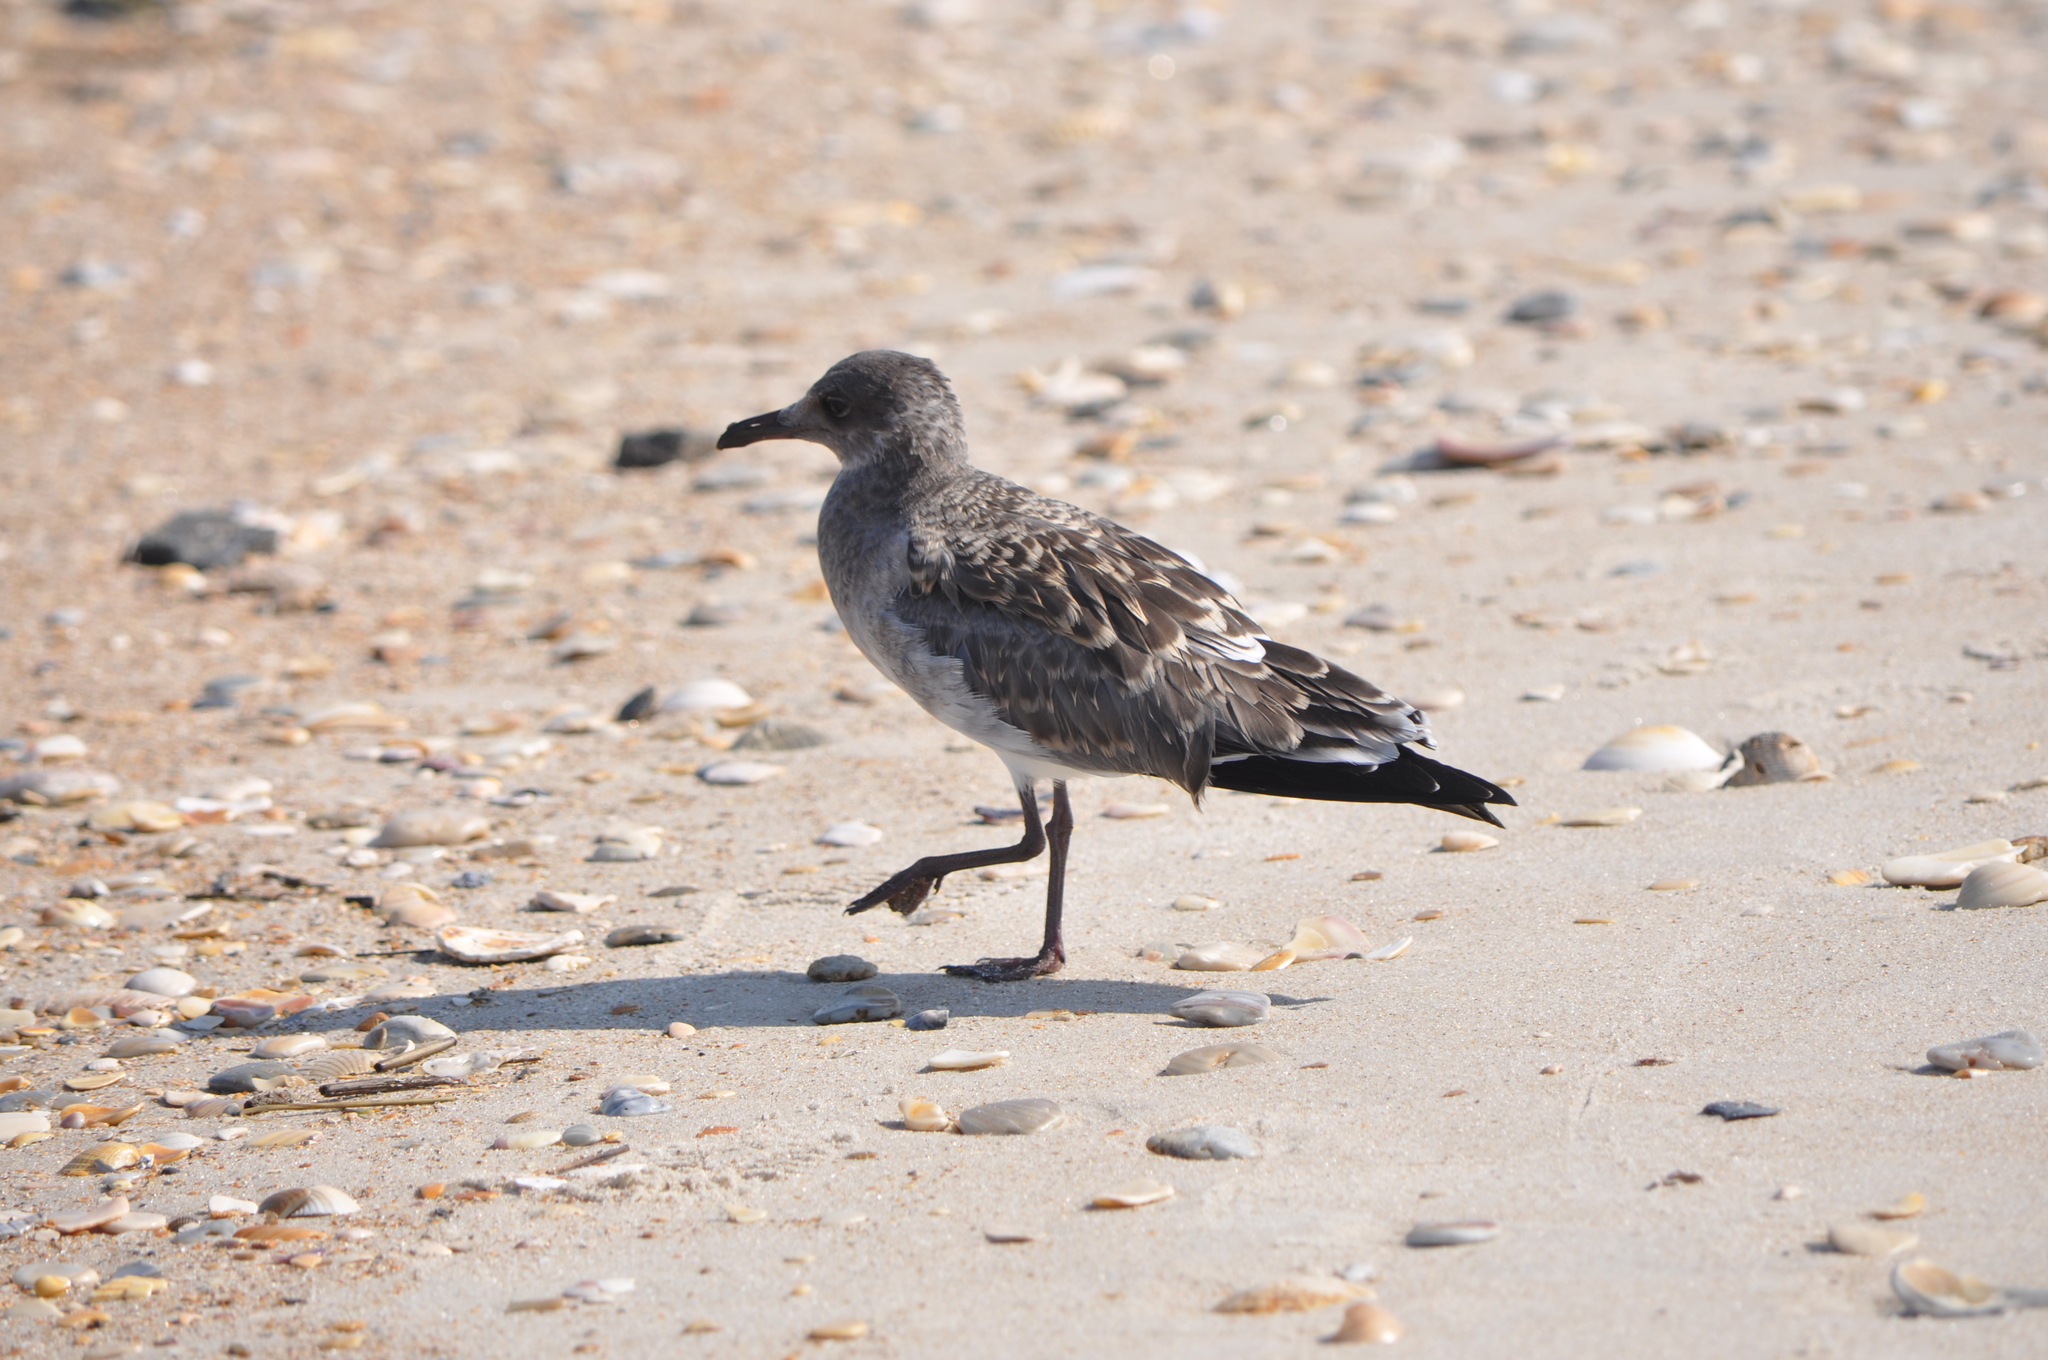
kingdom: Animalia
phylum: Chordata
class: Aves
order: Charadriiformes
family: Laridae
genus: Leucophaeus
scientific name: Leucophaeus atricilla
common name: Laughing gull
